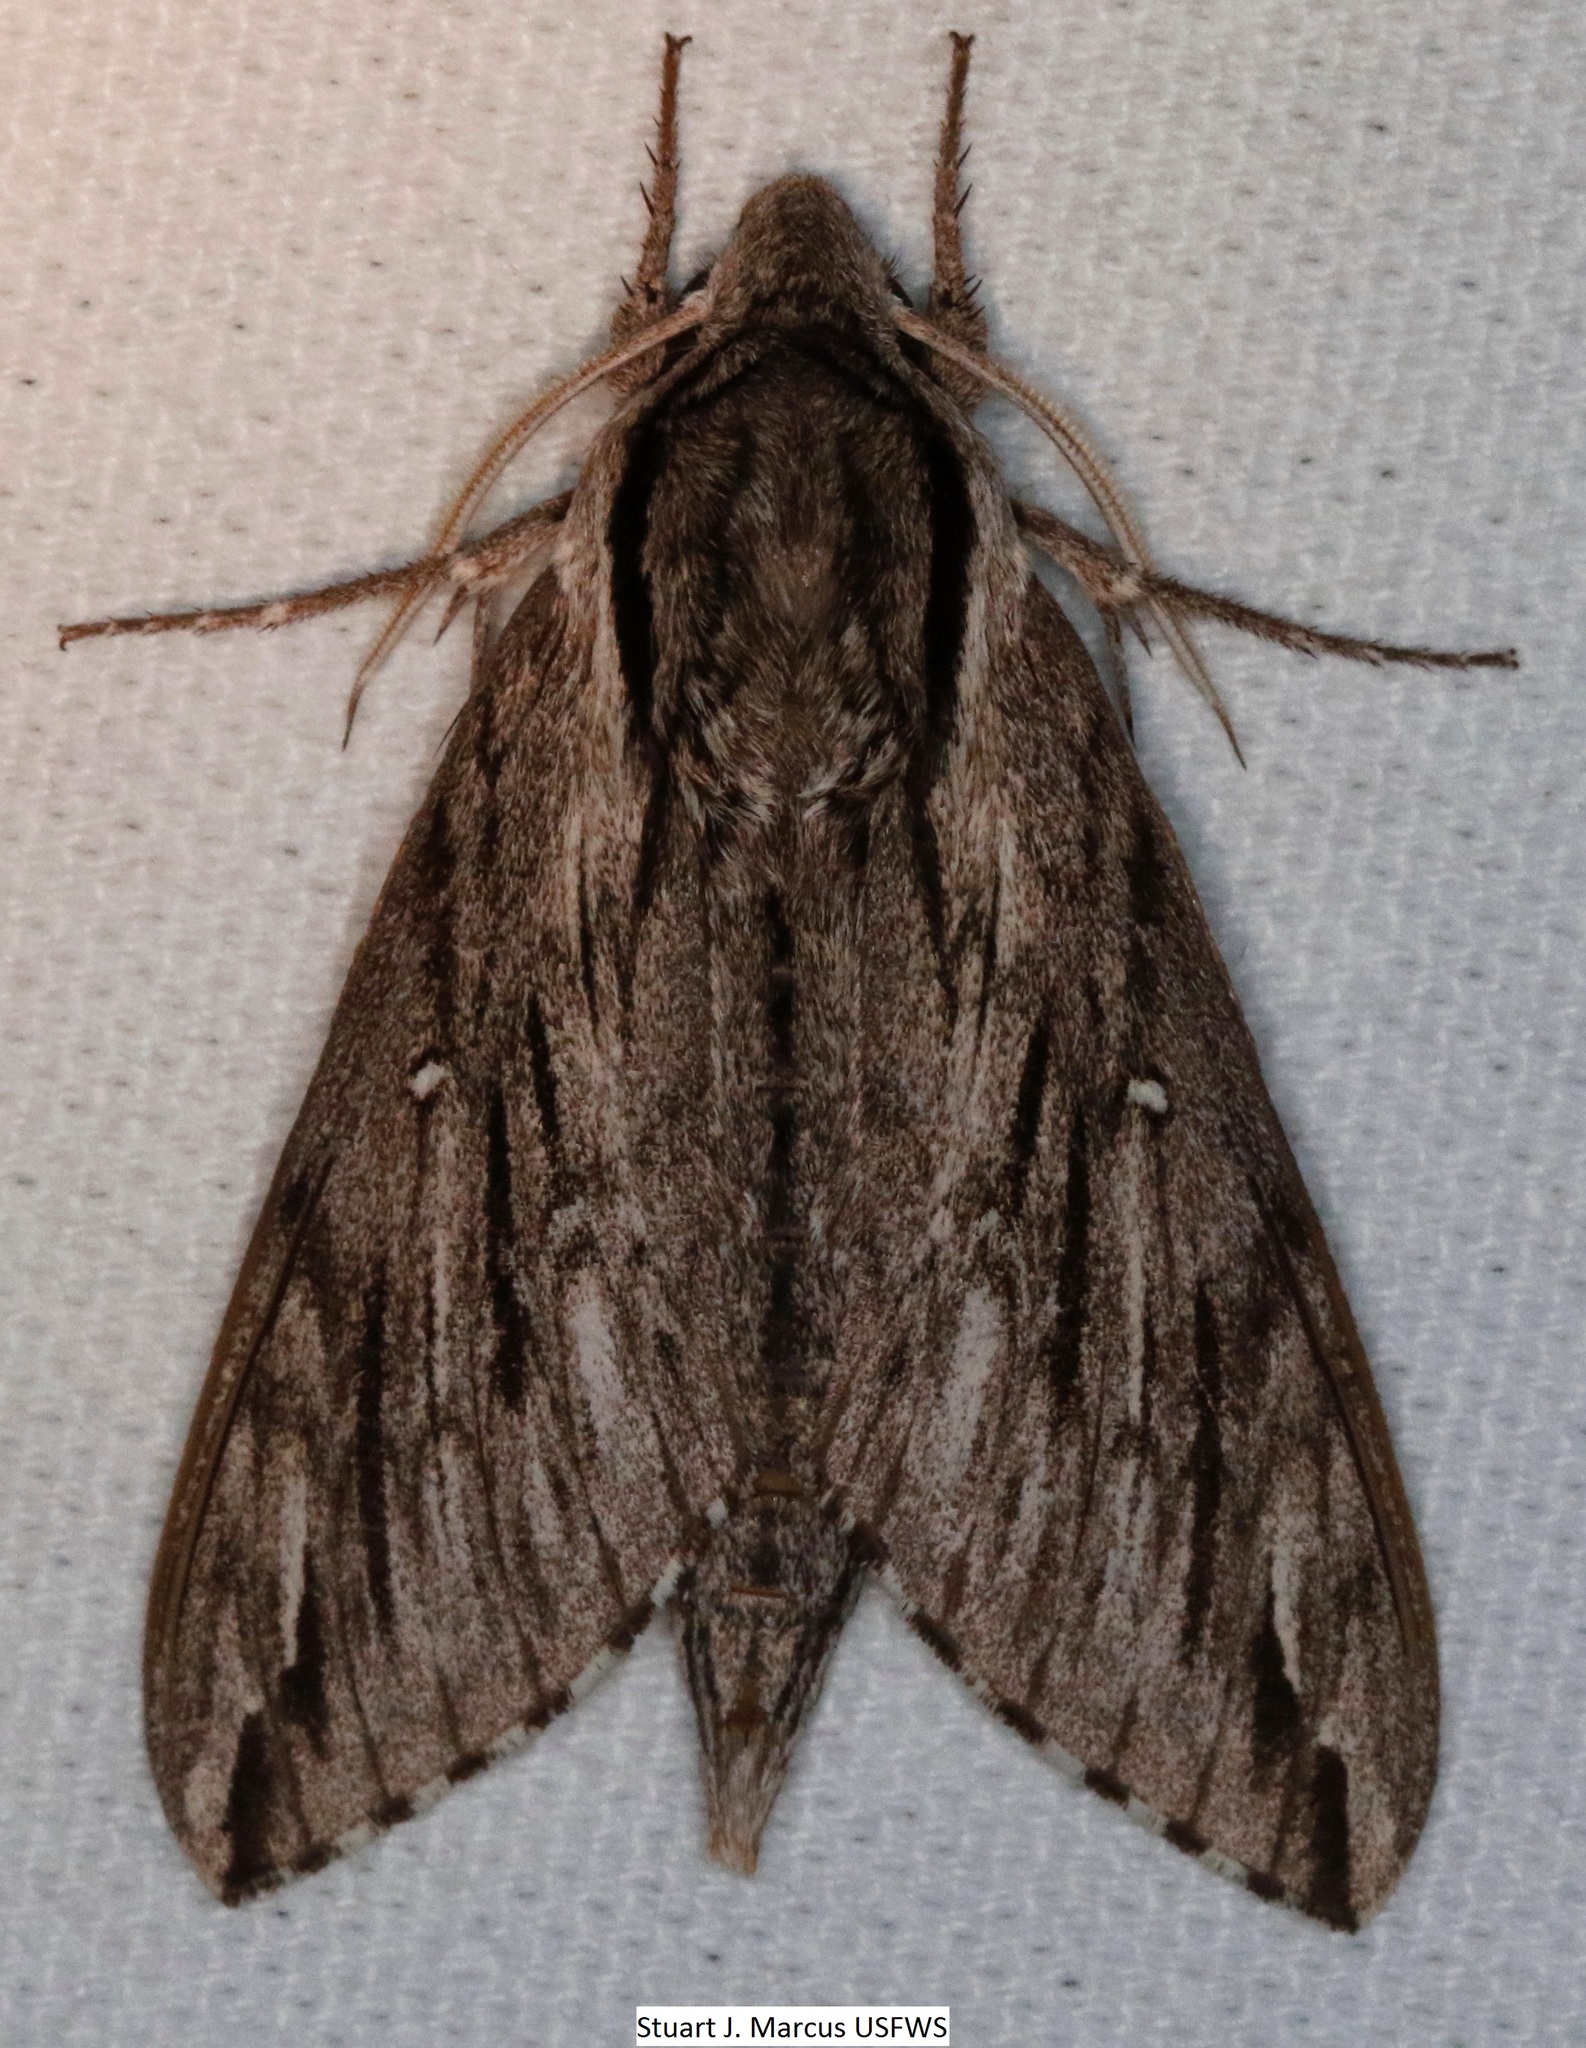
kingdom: Animalia
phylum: Arthropoda
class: Insecta
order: Lepidoptera
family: Sphingidae
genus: Paratrea
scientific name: Paratrea plebeja
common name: Plebian sphinx
